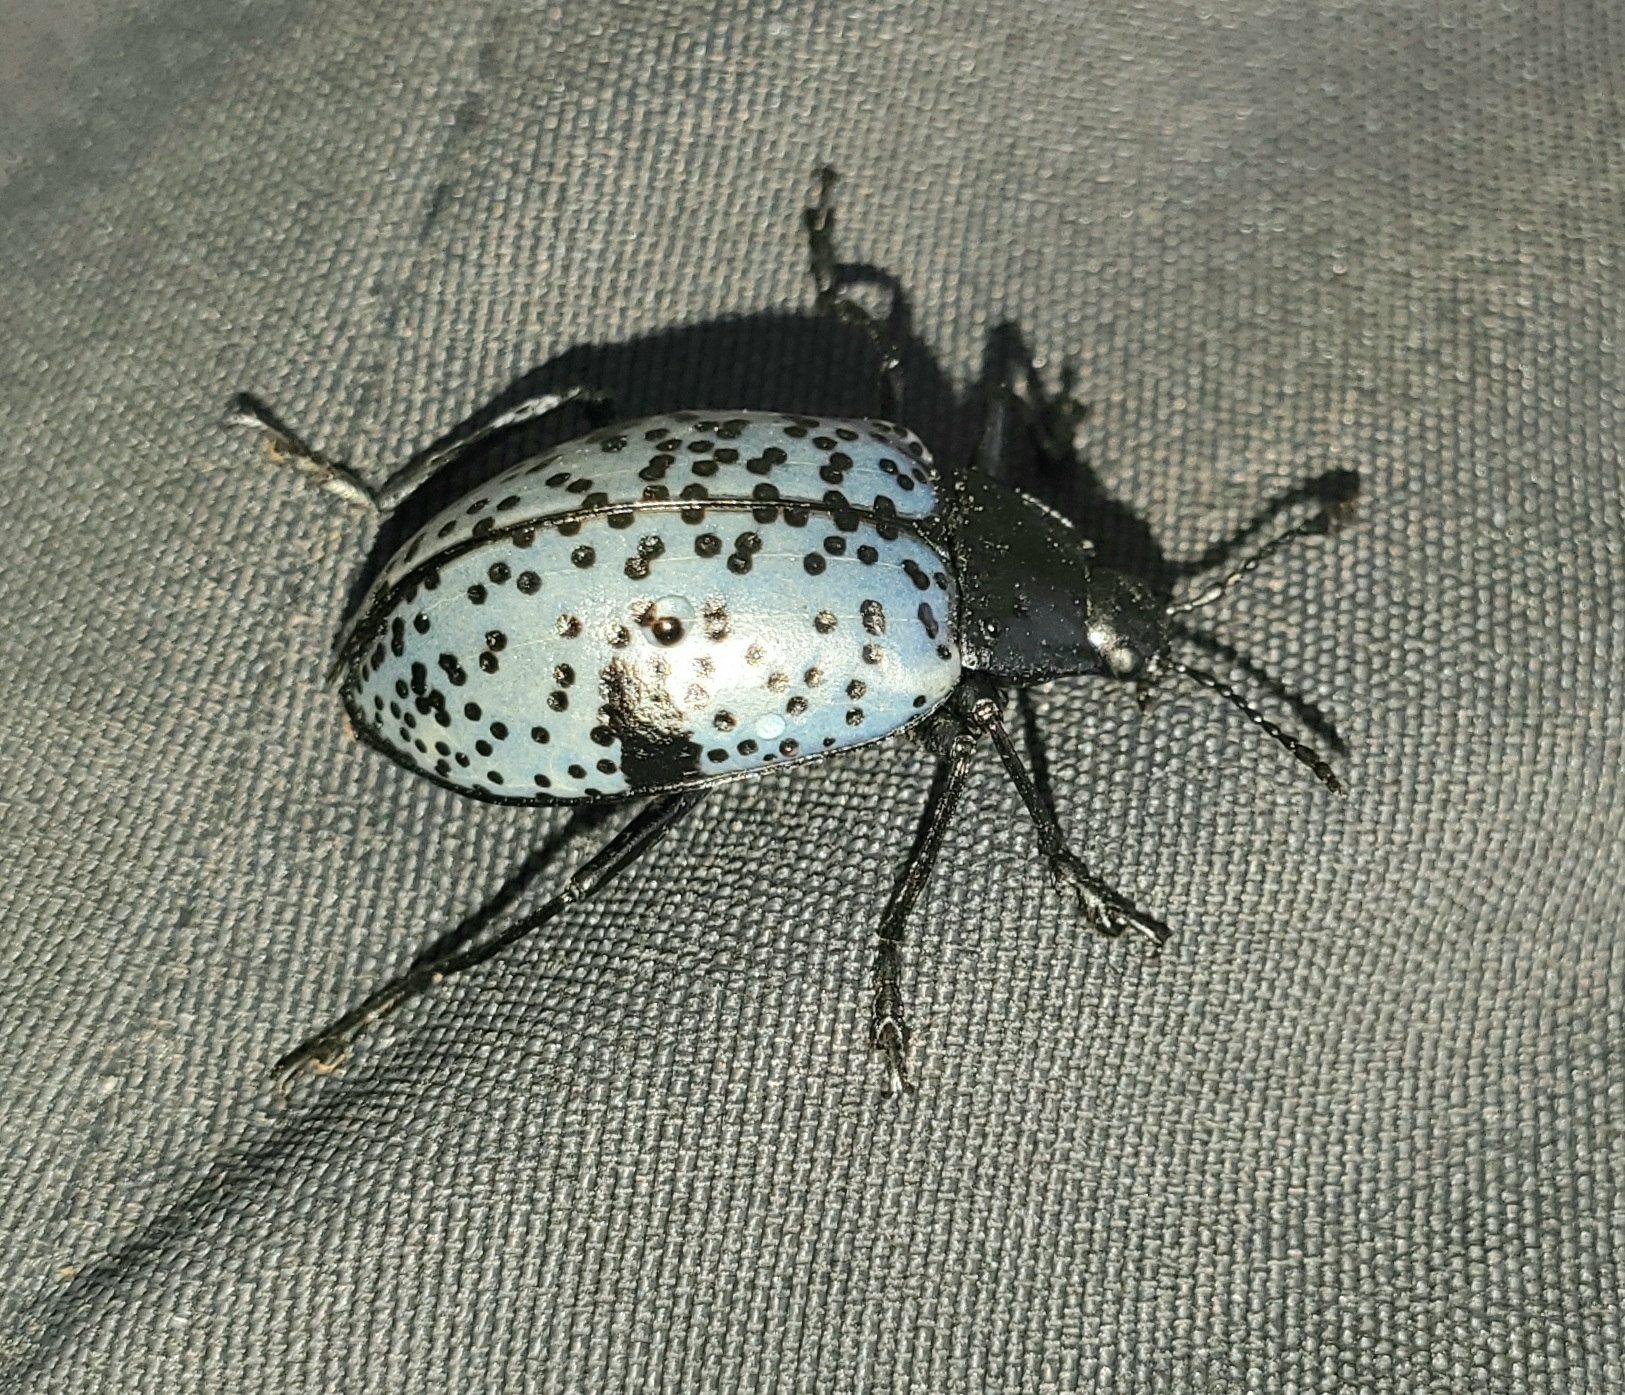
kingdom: Animalia
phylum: Arthropoda
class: Insecta
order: Coleoptera
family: Erotylidae
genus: Gibbifer
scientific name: Gibbifer californicus
